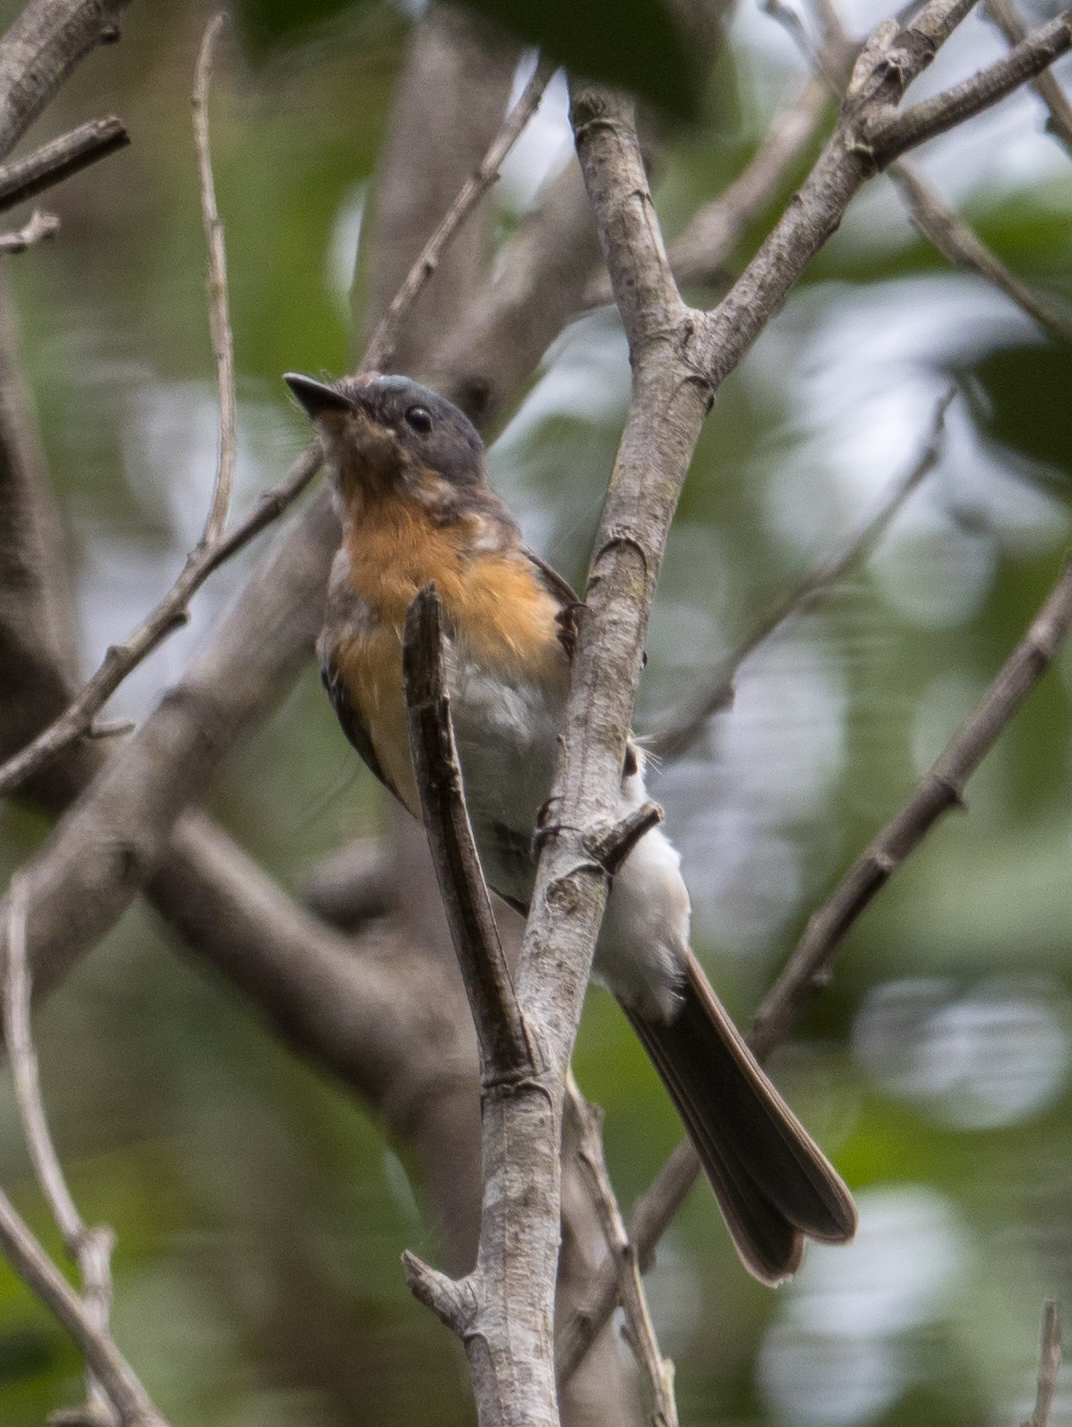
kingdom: Animalia
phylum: Chordata
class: Aves
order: Passeriformes
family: Monarchidae
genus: Myiagra
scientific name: Myiagra rubecula
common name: Leaden flycatcher
